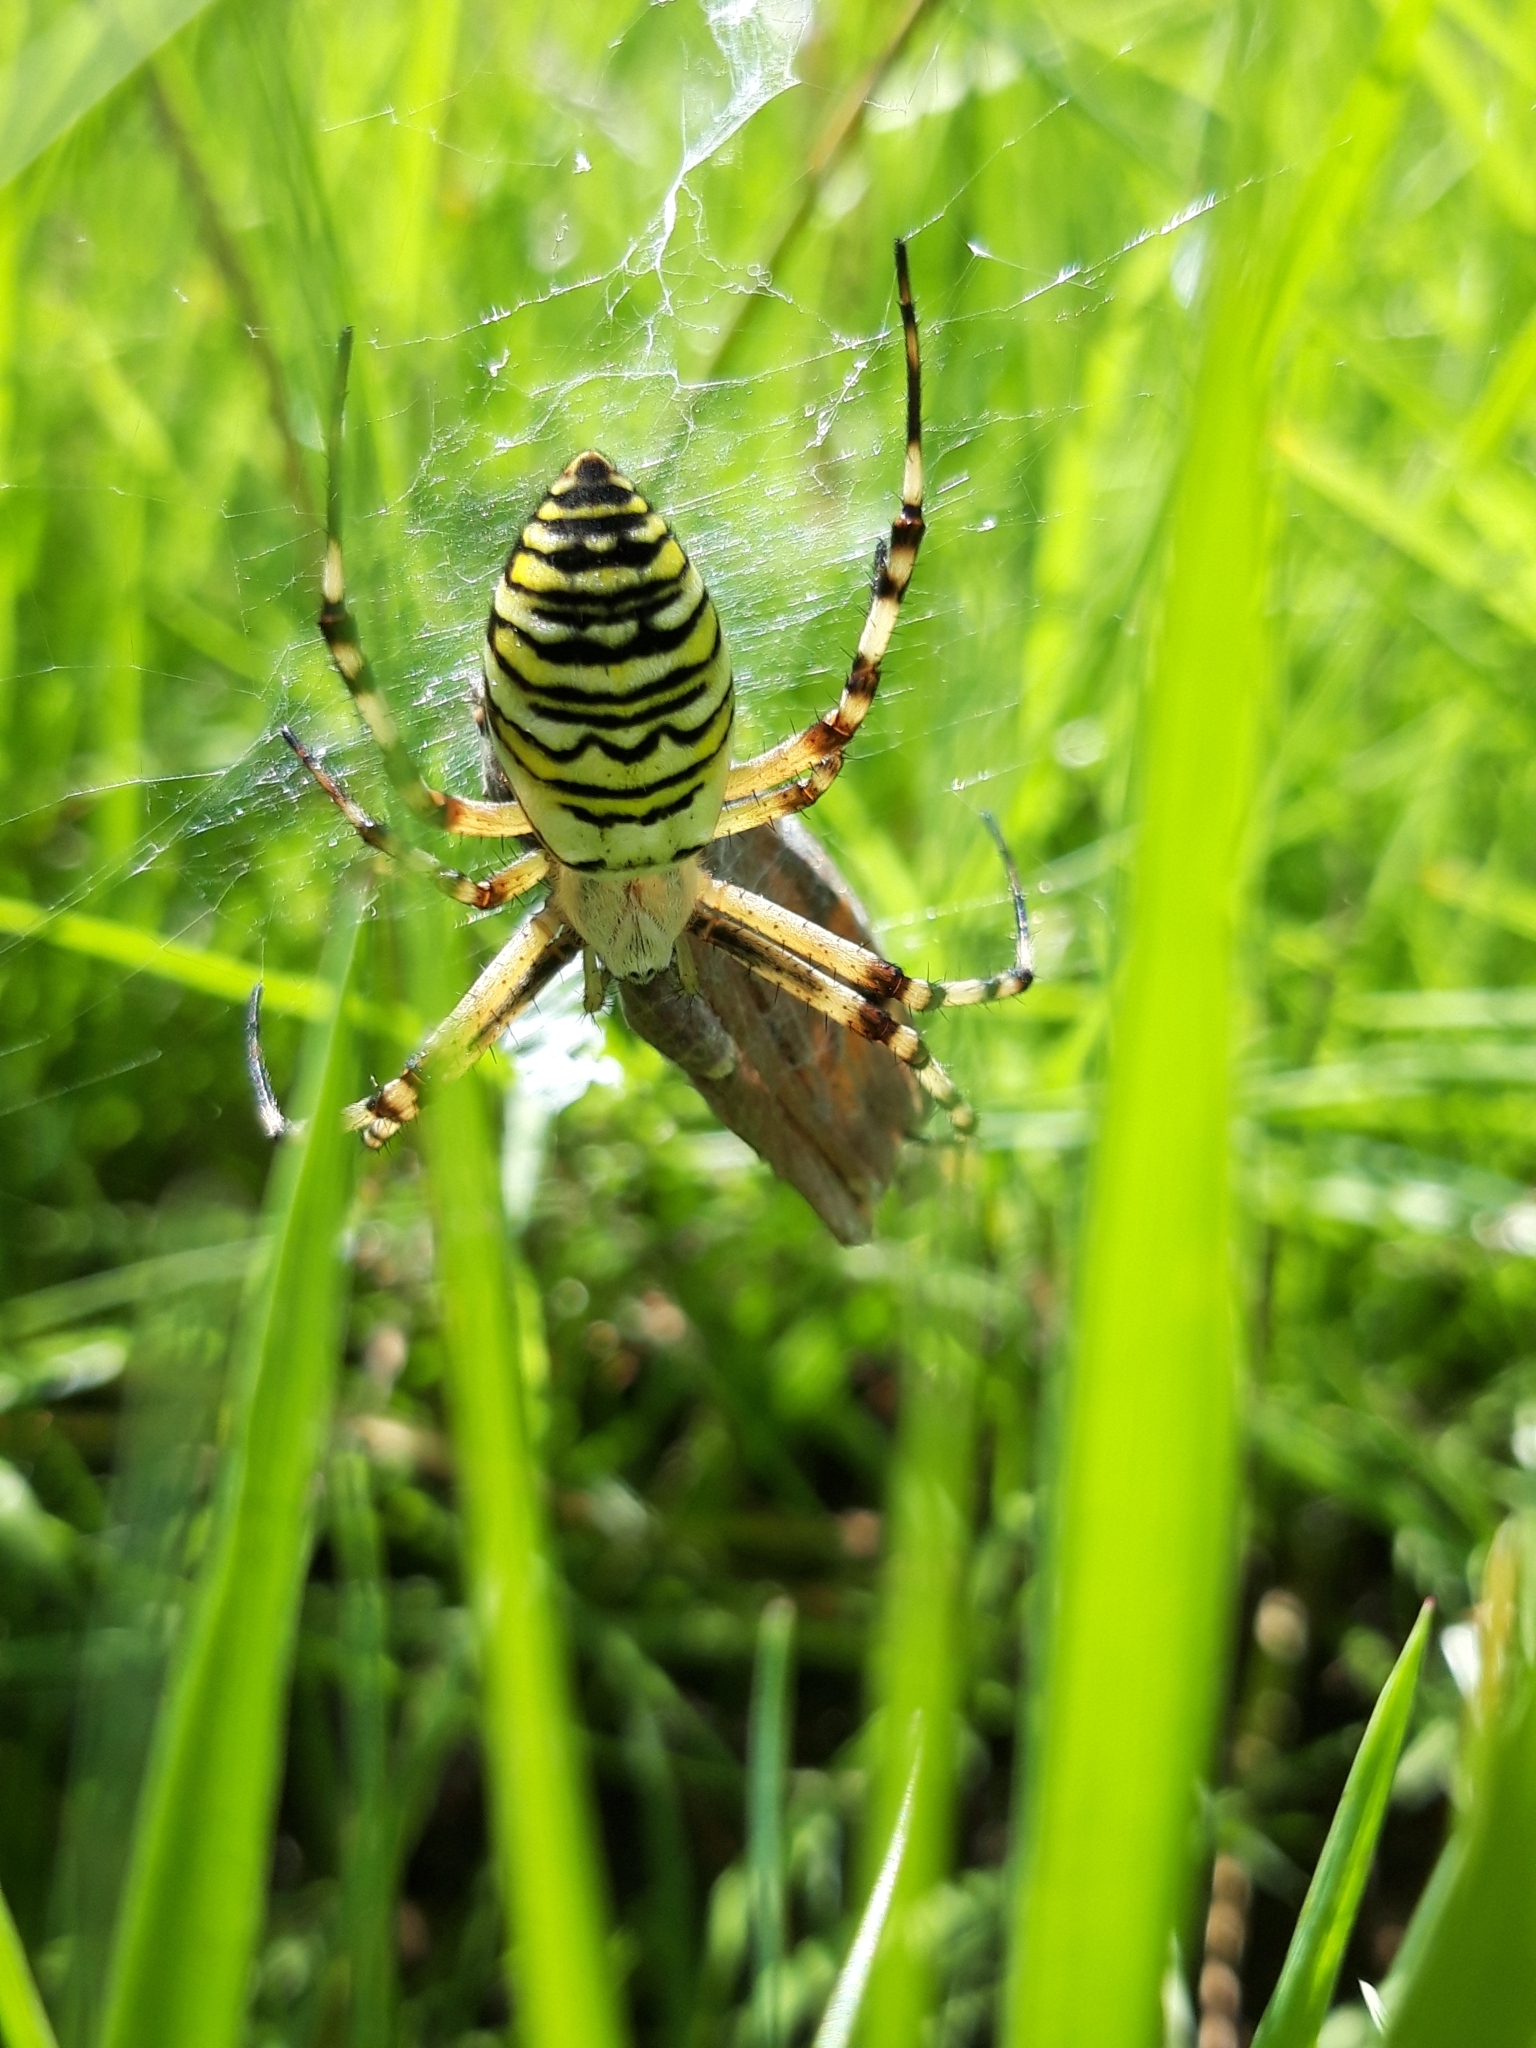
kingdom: Animalia
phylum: Arthropoda
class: Arachnida
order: Araneae
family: Araneidae
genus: Argiope
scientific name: Argiope bruennichi
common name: Wasp spider
